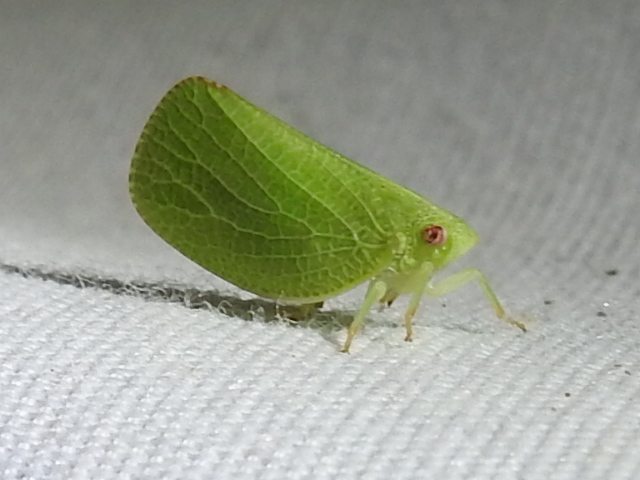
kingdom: Animalia
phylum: Arthropoda
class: Insecta
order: Hemiptera
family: Acanaloniidae
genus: Acanalonia
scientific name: Acanalonia conica
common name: Green cone-headed planthopper
